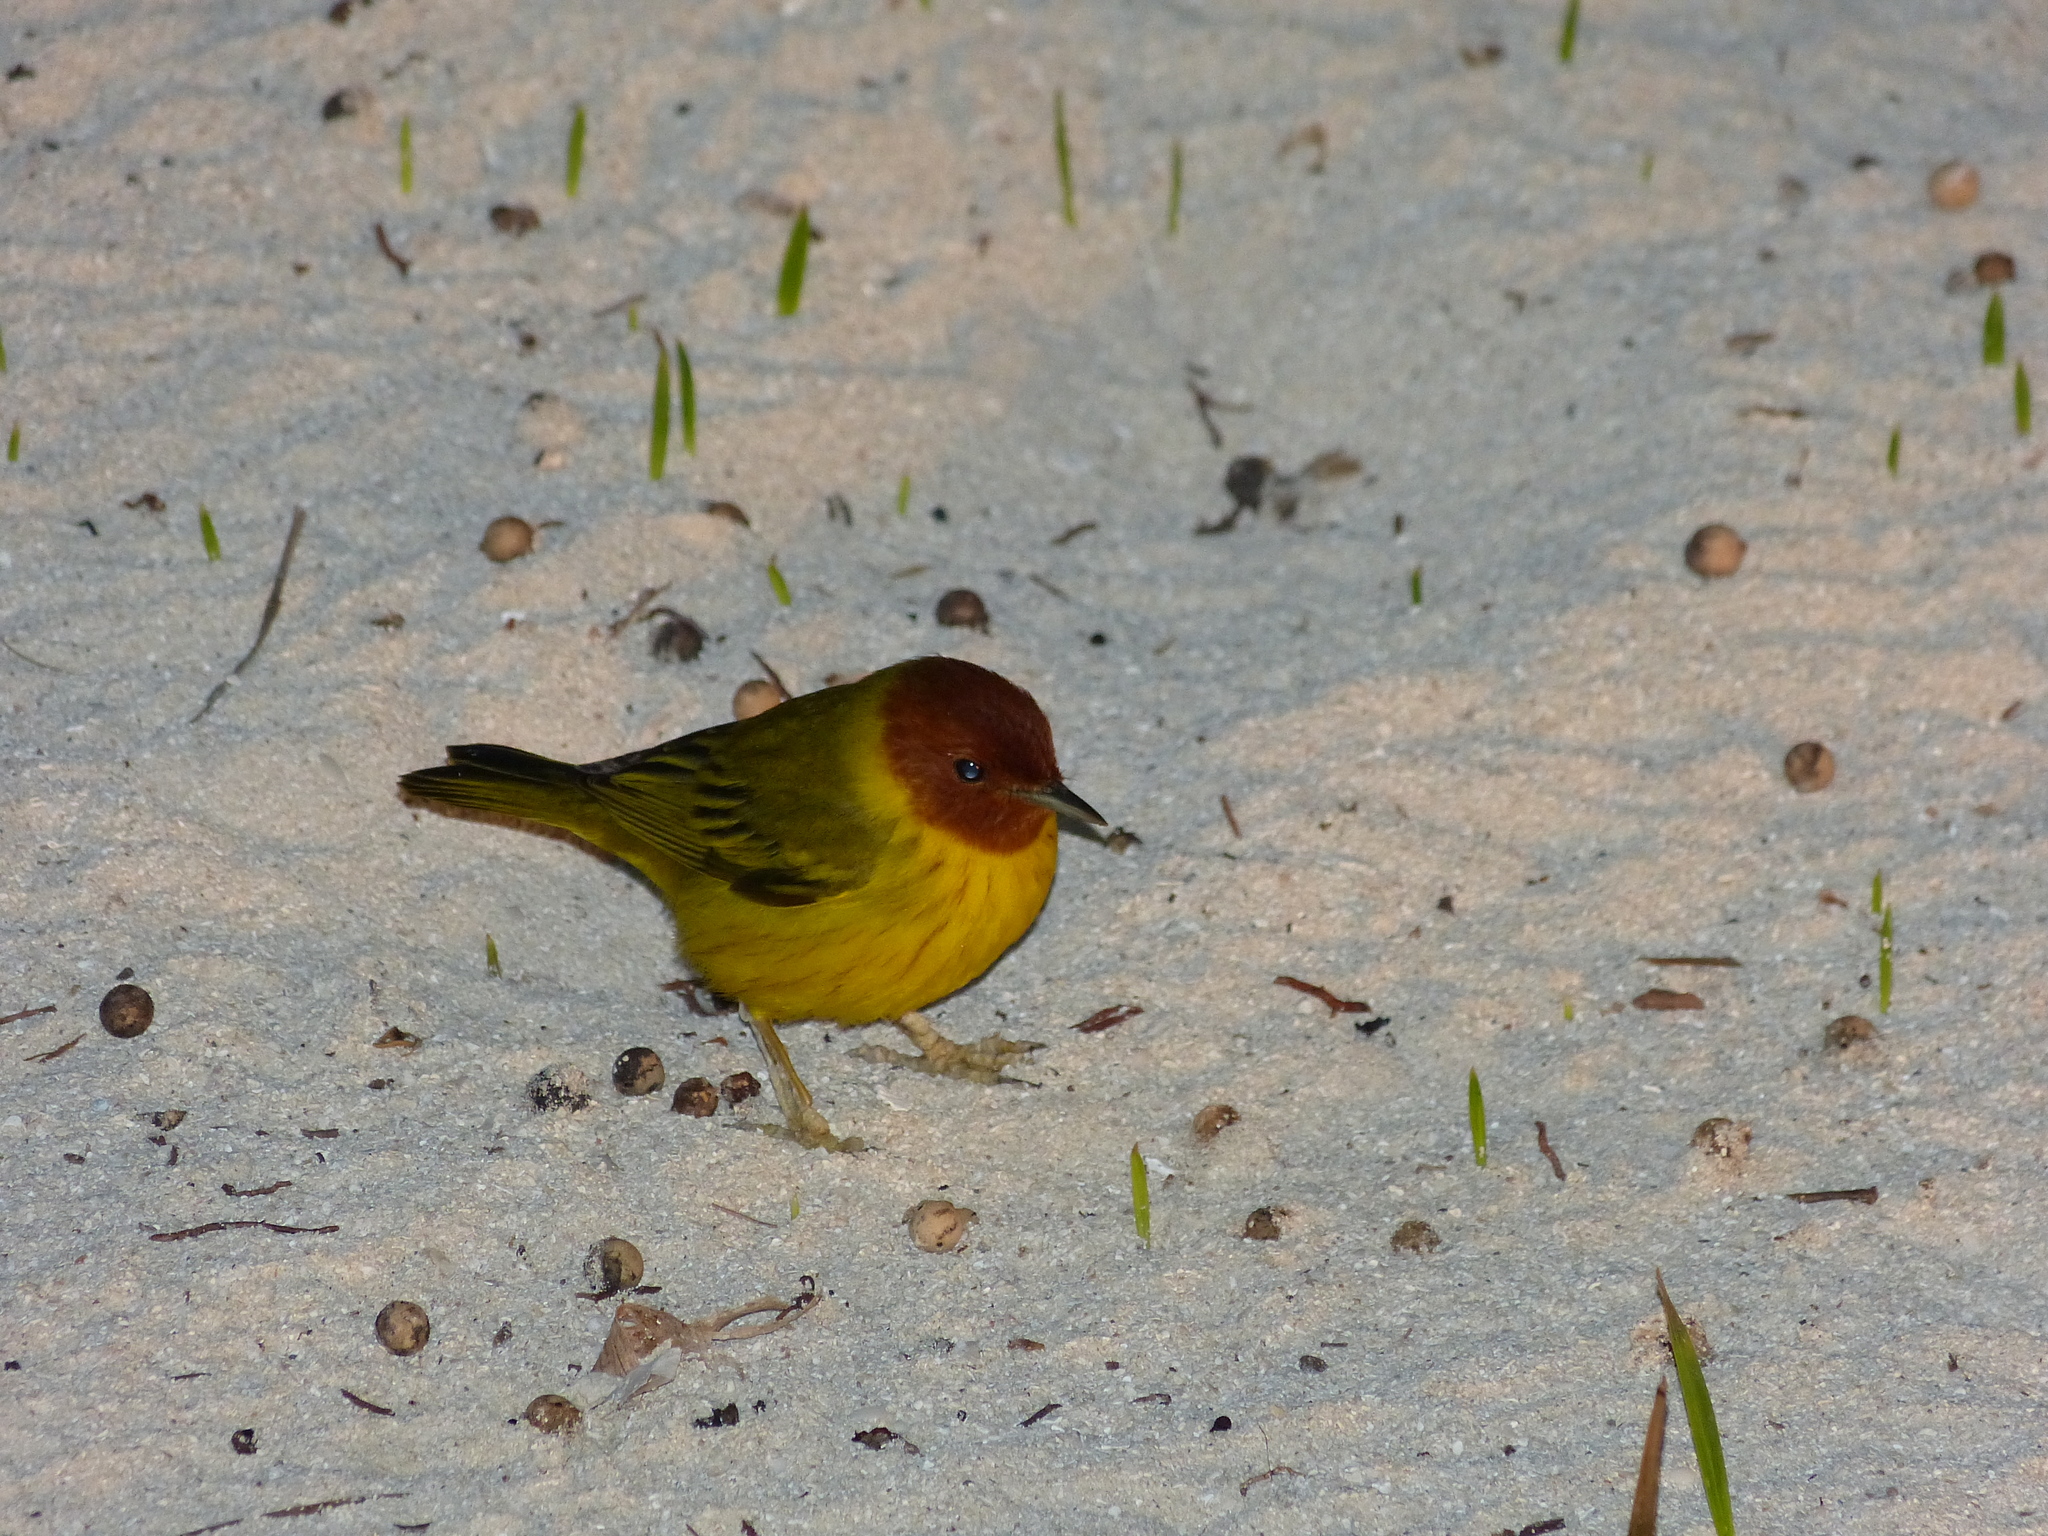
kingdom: Animalia
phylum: Chordata
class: Aves
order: Passeriformes
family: Parulidae
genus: Setophaga
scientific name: Setophaga petechia
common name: Yellow warbler
